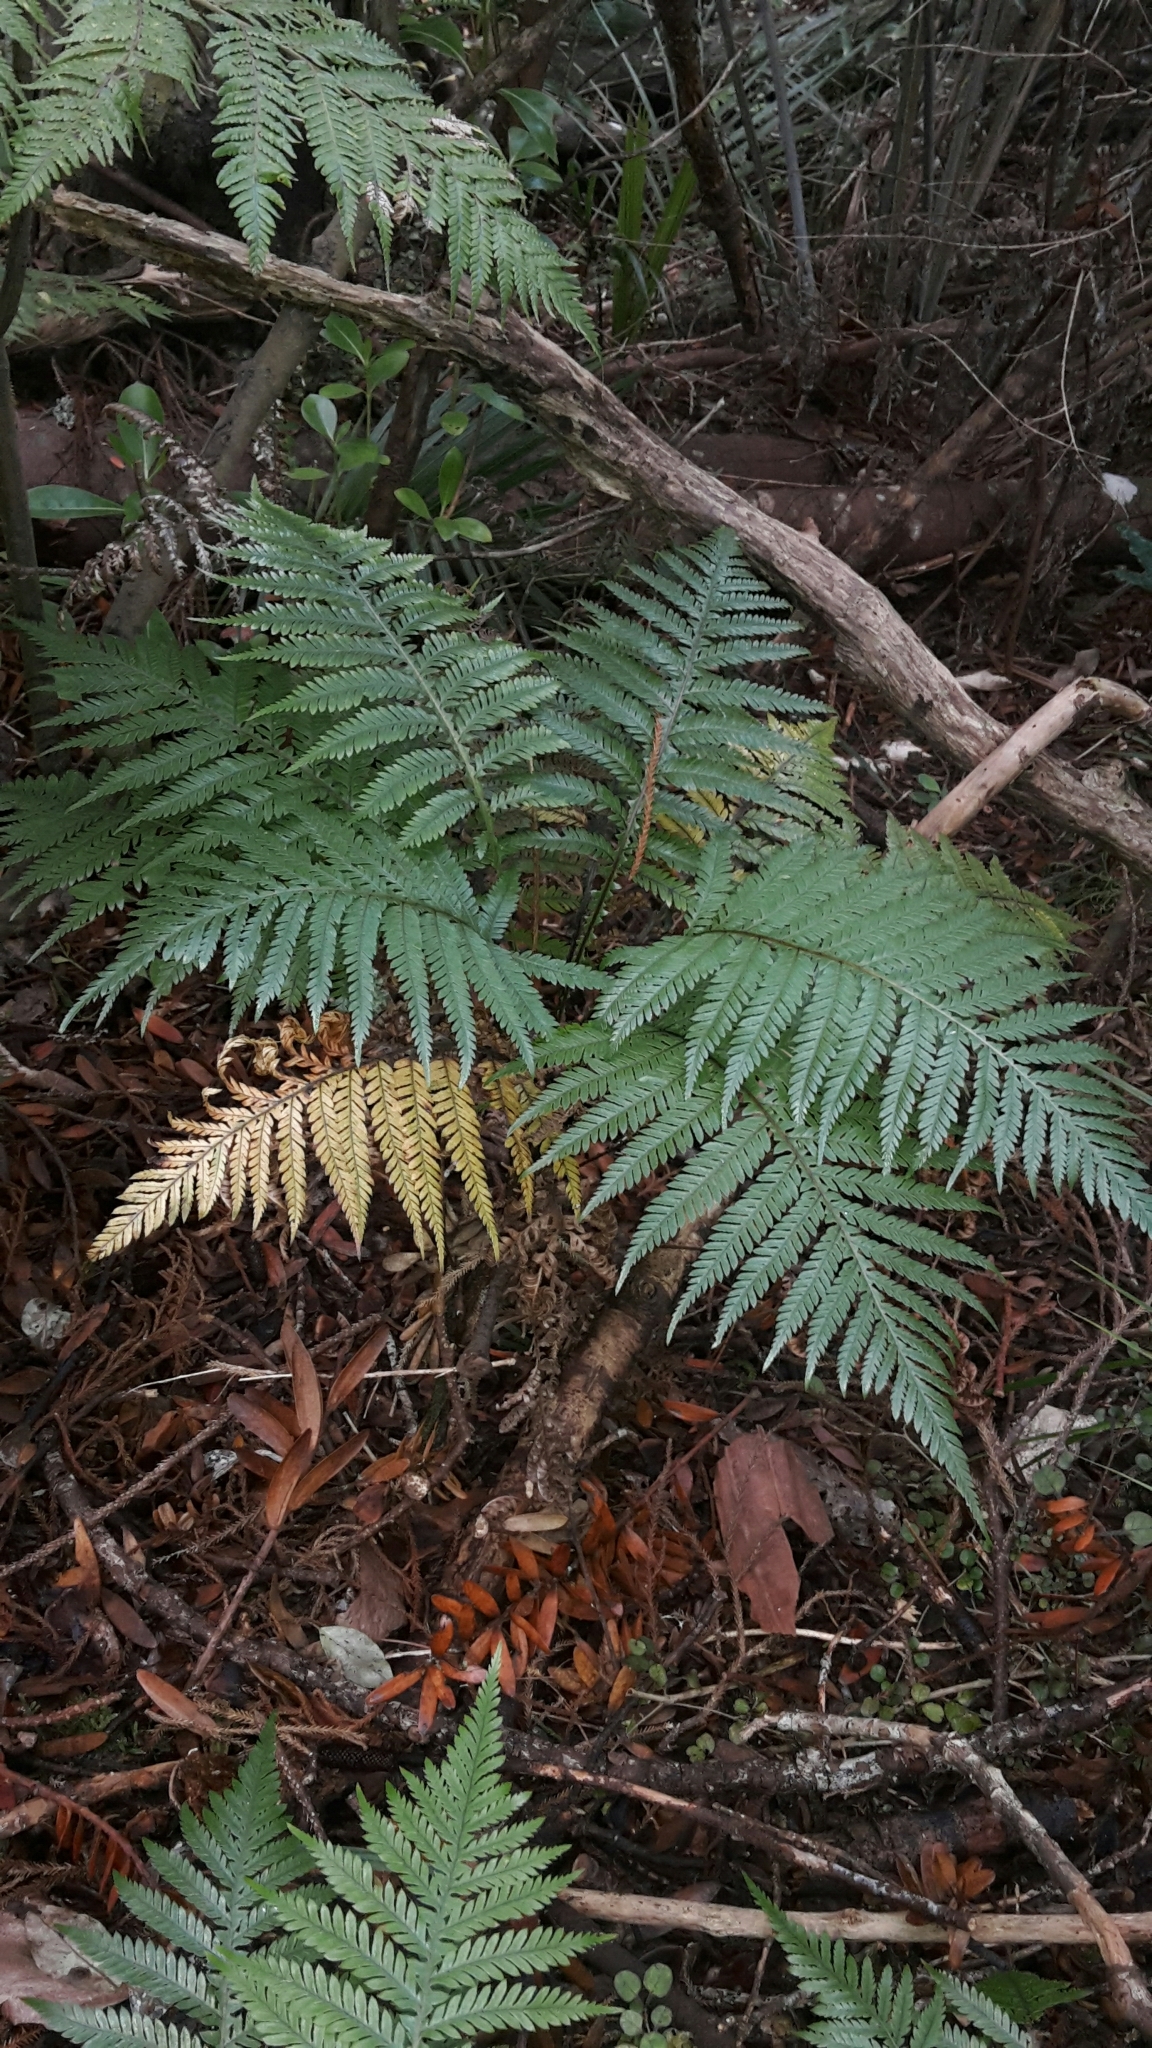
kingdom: Plantae
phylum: Tracheophyta
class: Polypodiopsida
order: Polypodiales
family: Blechnaceae
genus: Diploblechnum
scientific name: Diploblechnum fraseri
